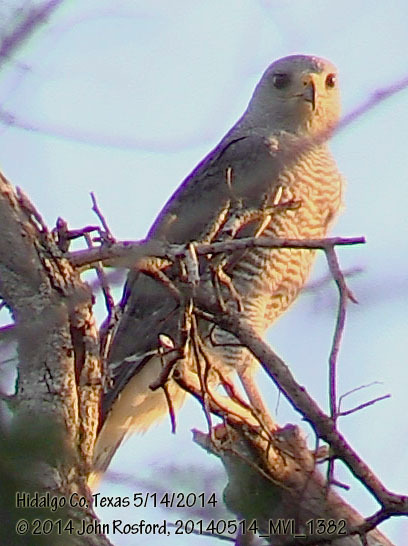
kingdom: Animalia
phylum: Chordata
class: Aves
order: Accipitriformes
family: Accipitridae
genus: Buteo
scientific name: Buteo nitidus
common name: Grey-lined hawk
